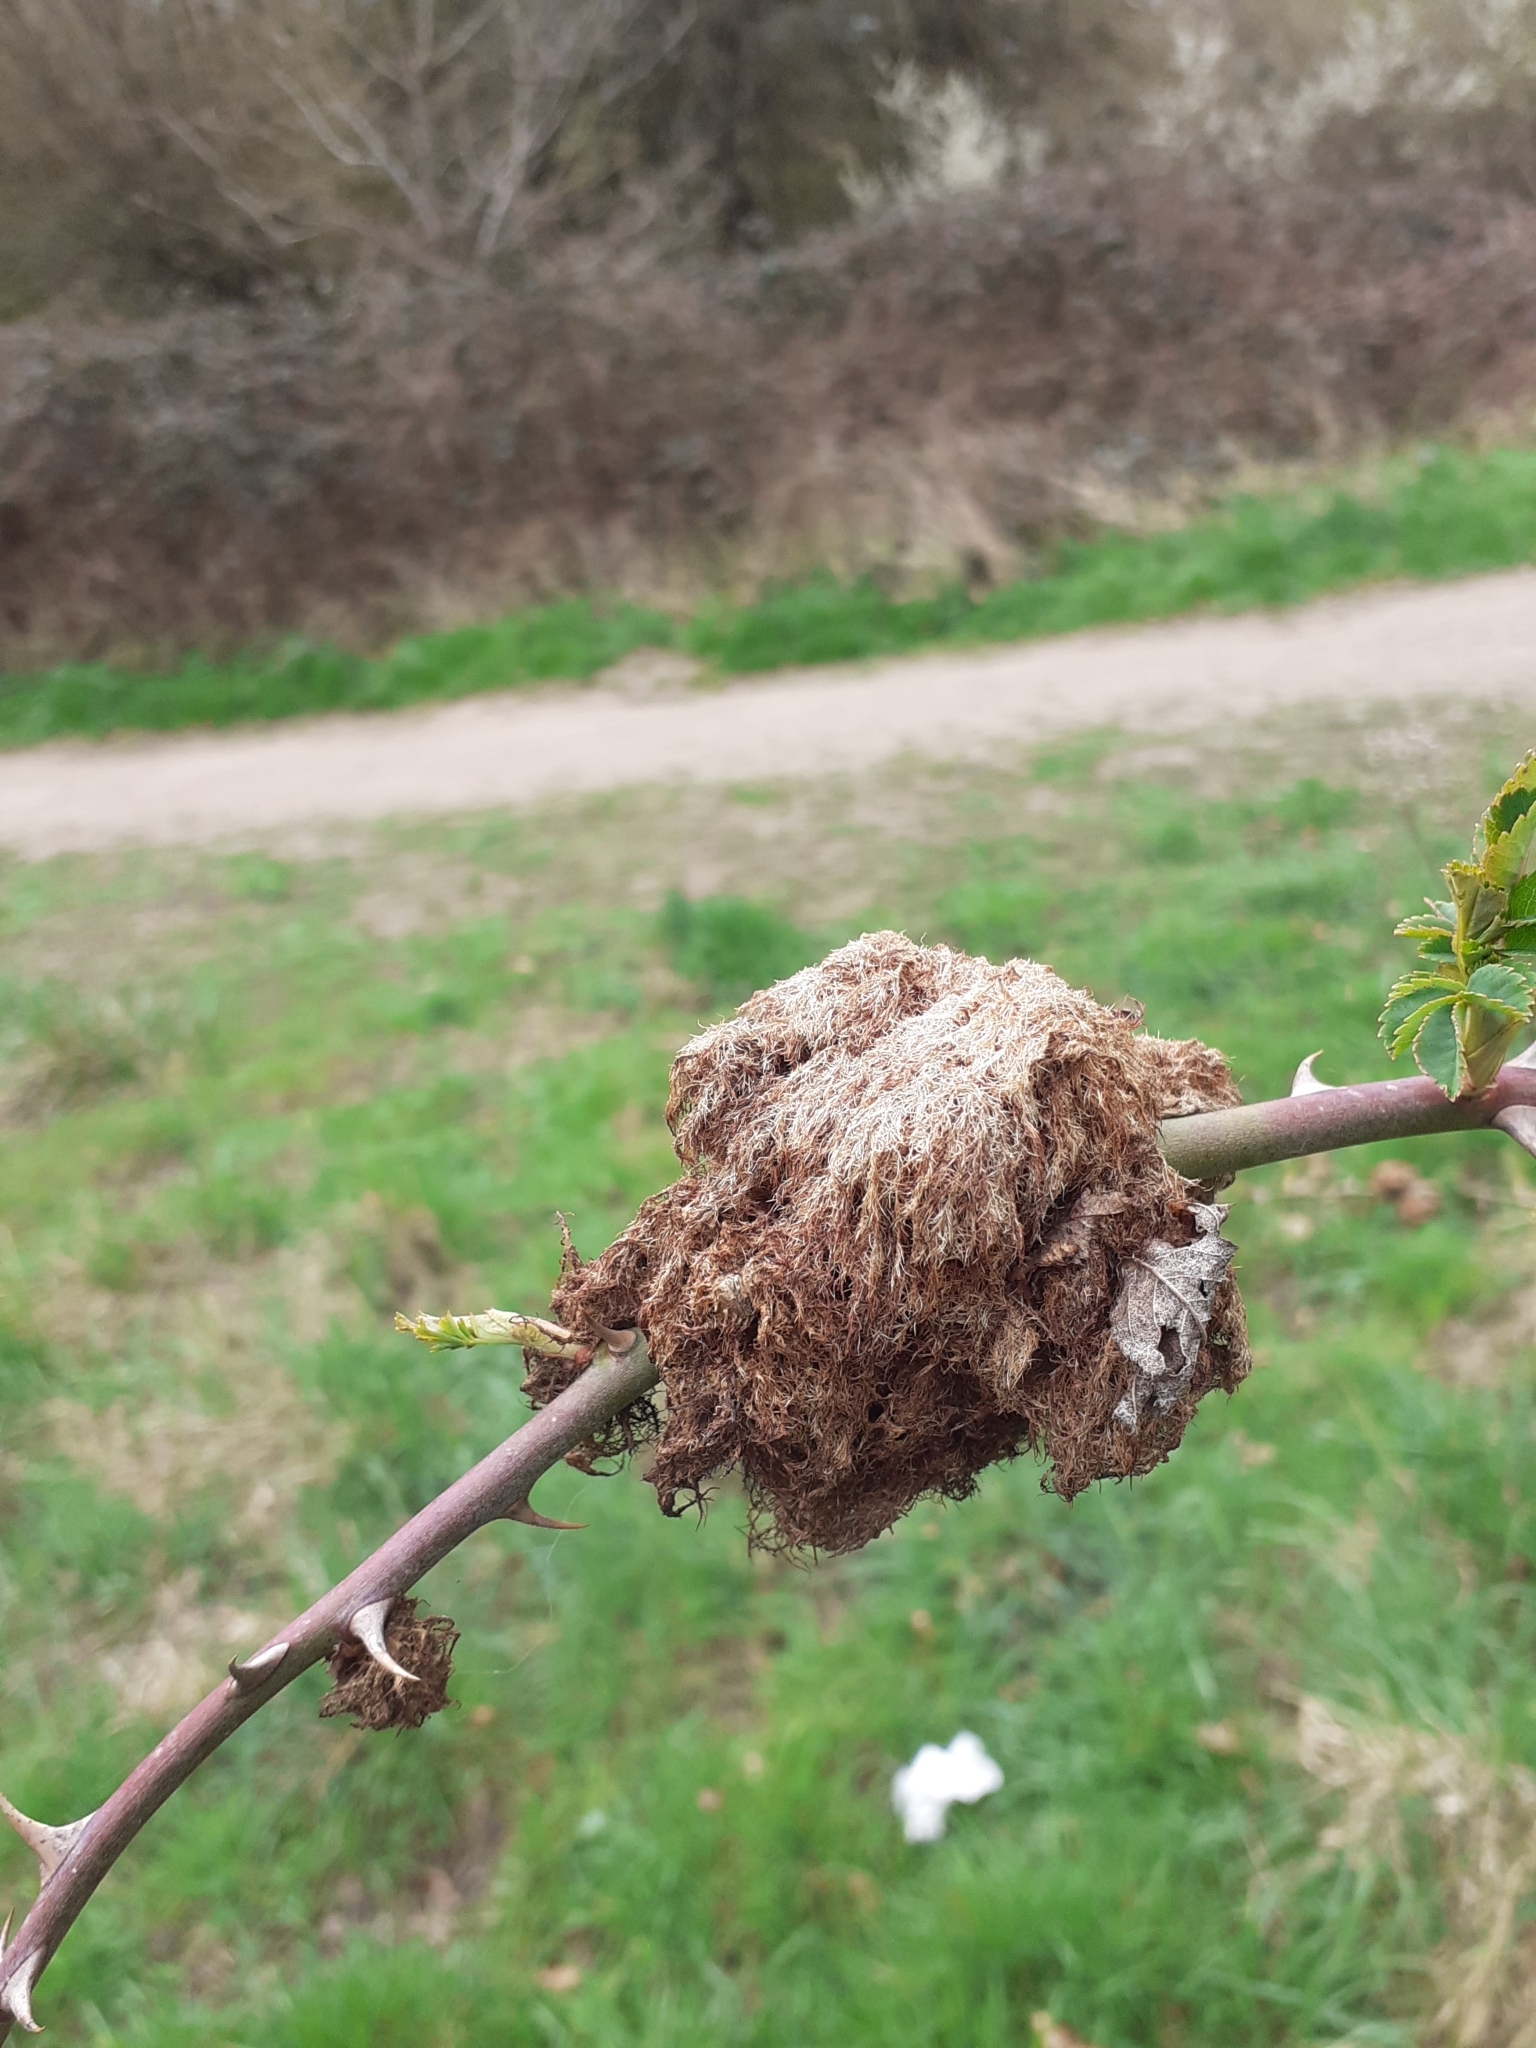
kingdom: Animalia
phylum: Arthropoda
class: Insecta
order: Hymenoptera
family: Cynipidae
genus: Diplolepis
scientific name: Diplolepis rosae
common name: Bedeguar gall
